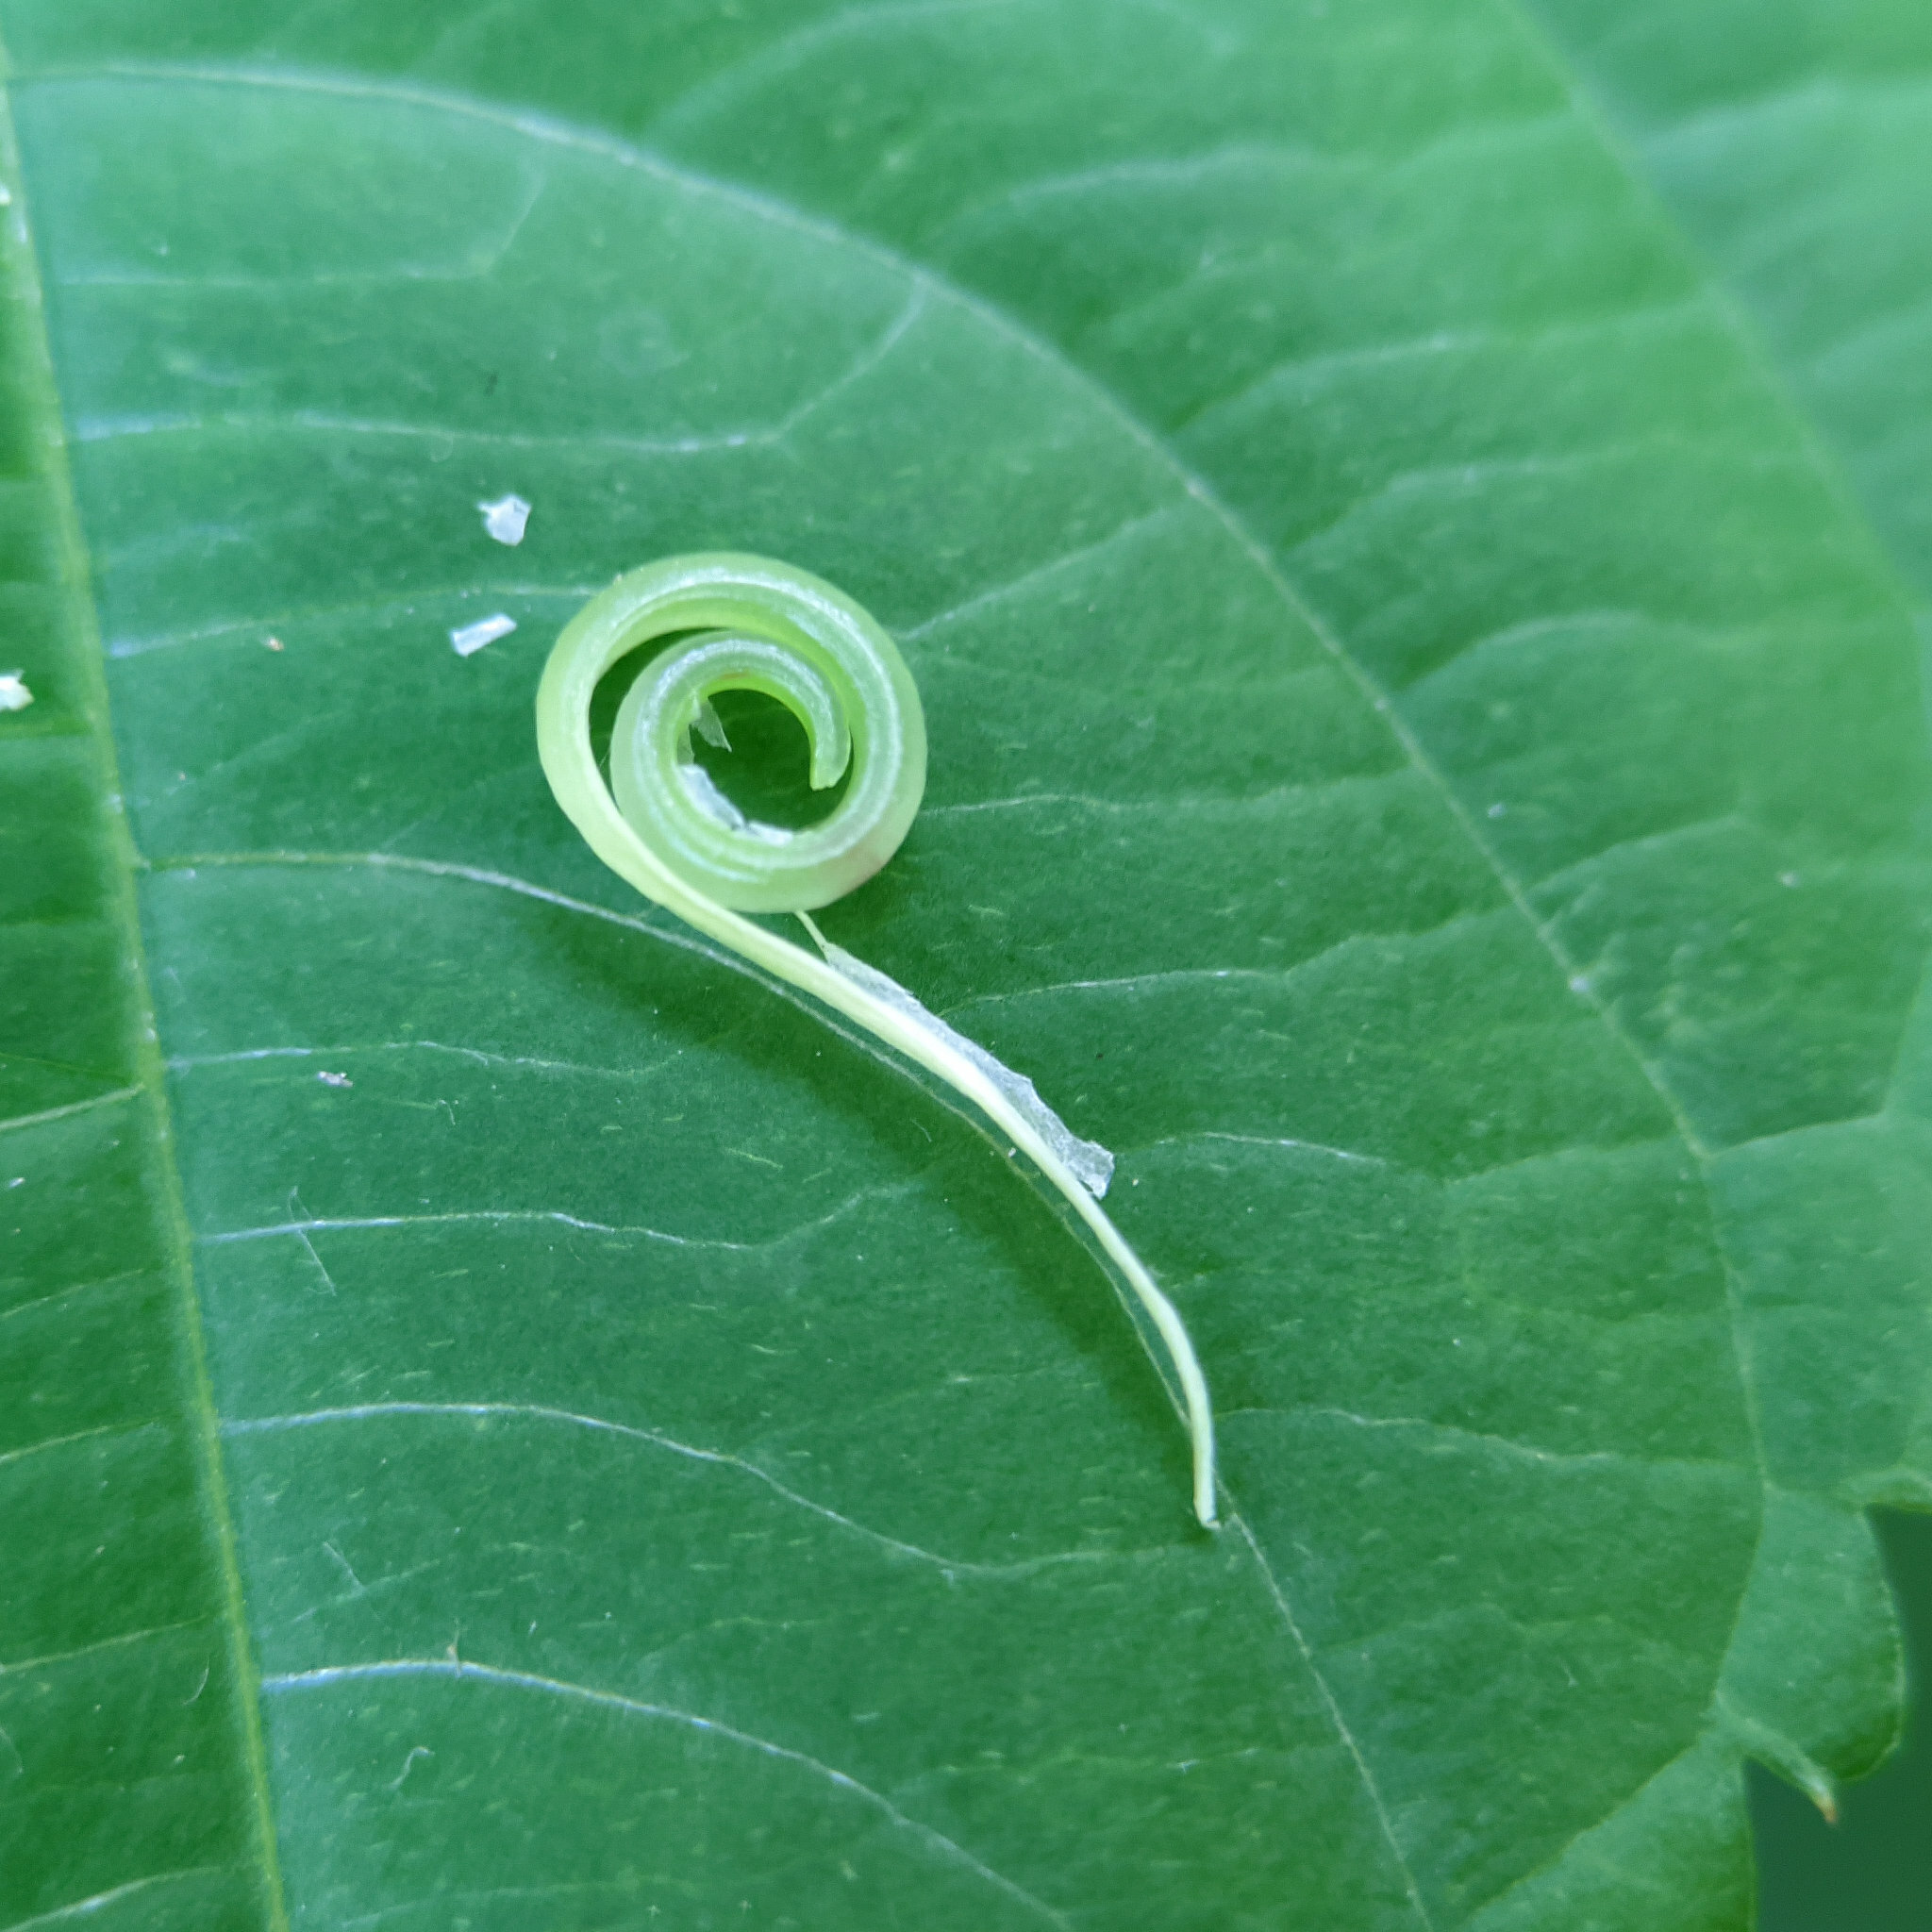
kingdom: Plantae
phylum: Tracheophyta
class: Magnoliopsida
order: Ericales
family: Balsaminaceae
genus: Impatiens
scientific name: Impatiens parviflora
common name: Small balsam
